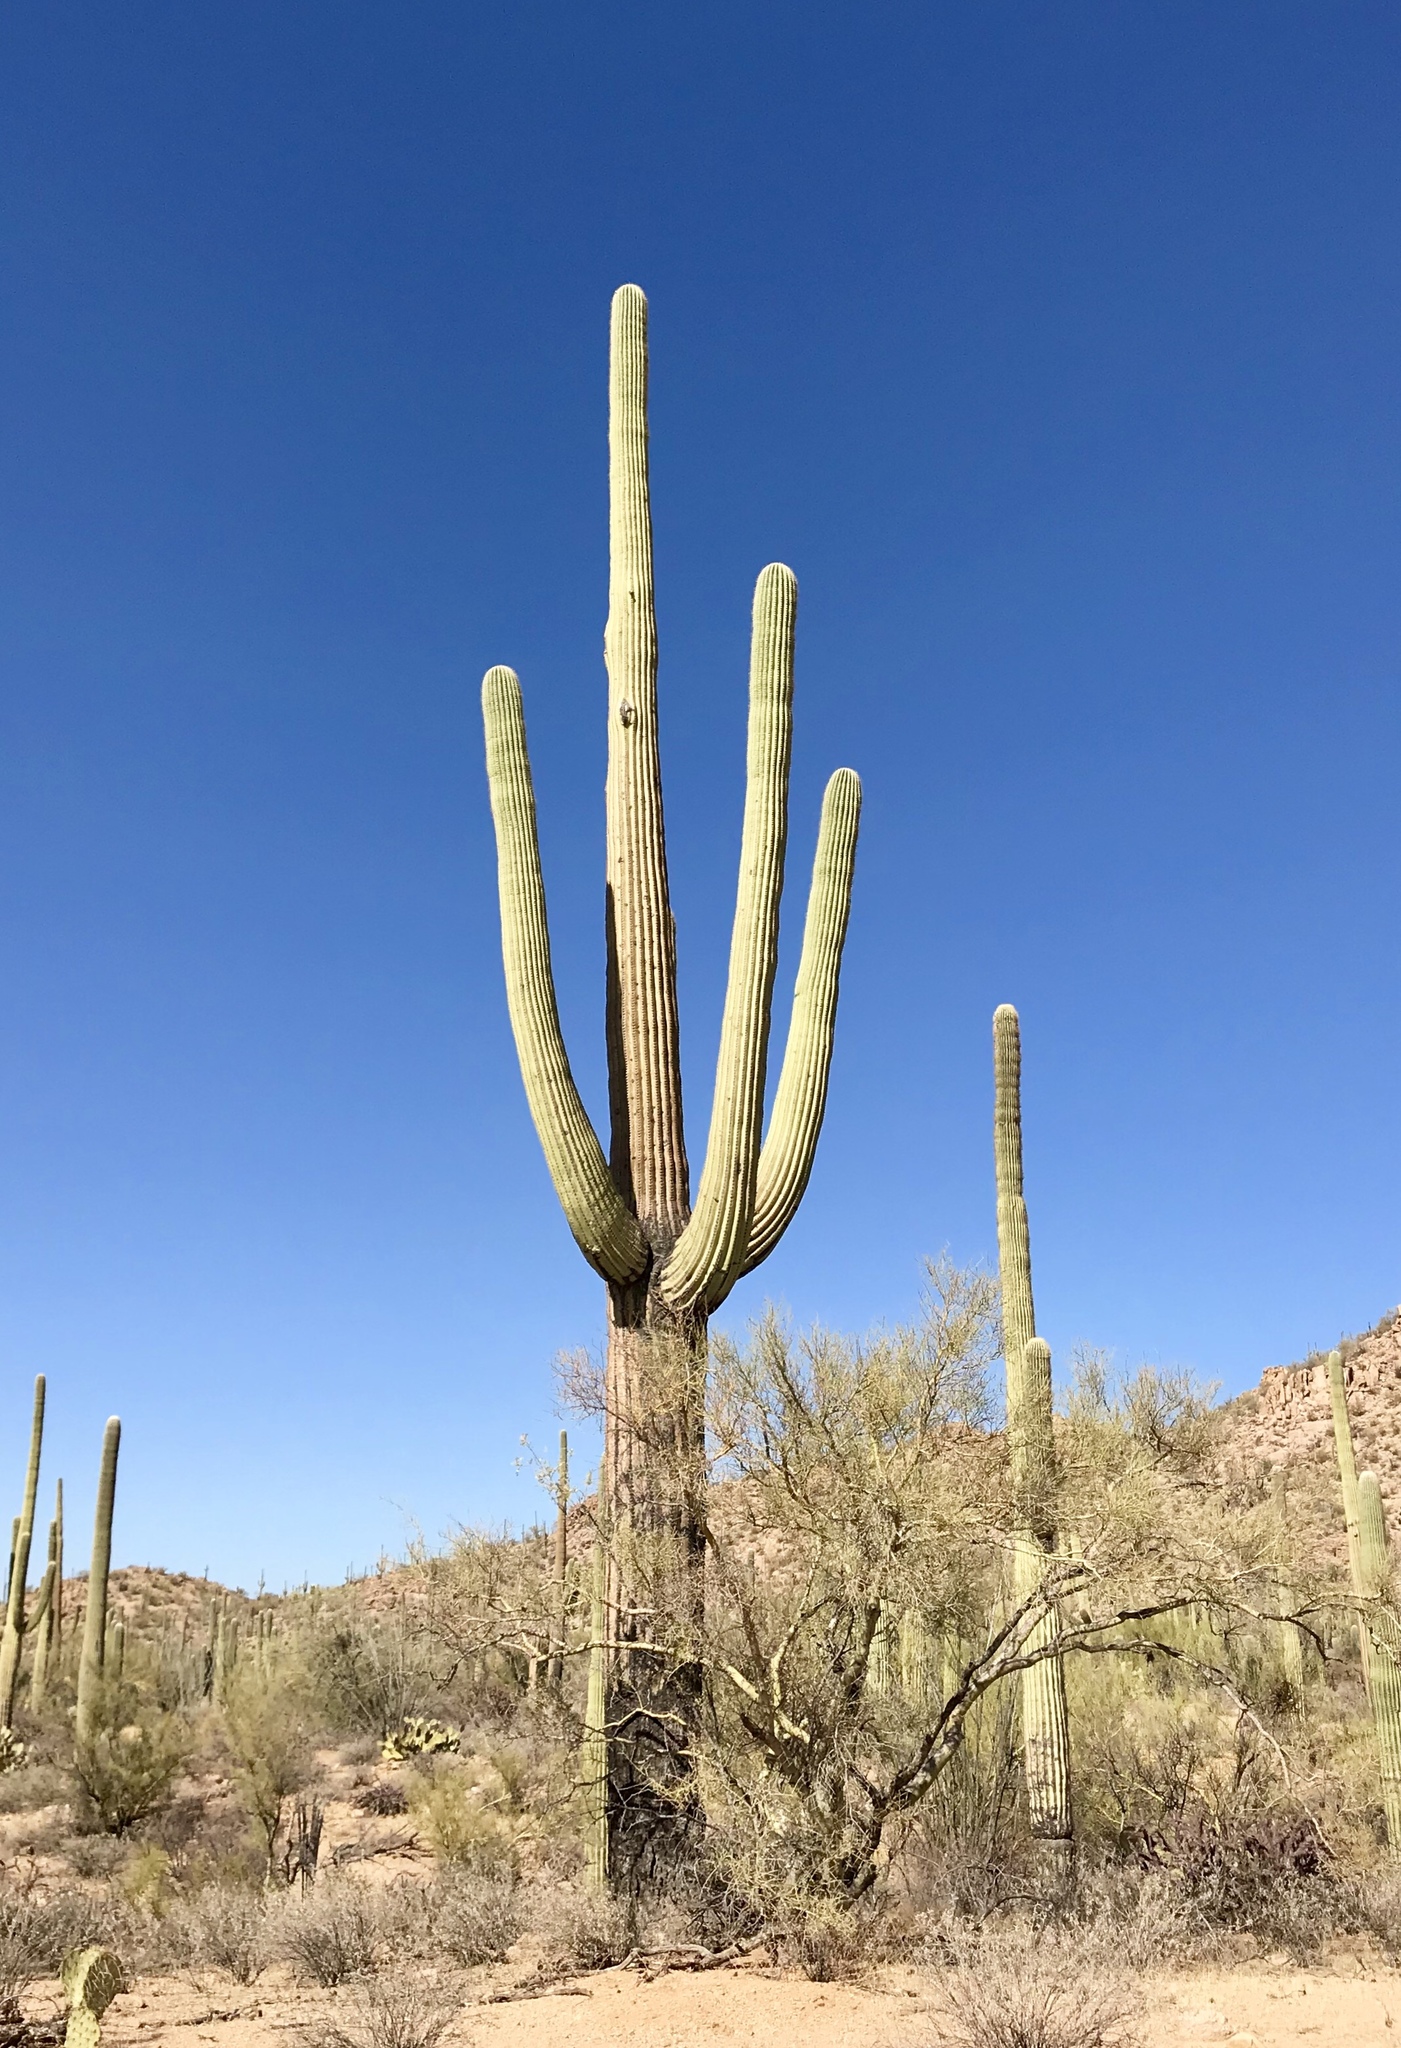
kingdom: Plantae
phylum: Tracheophyta
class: Magnoliopsida
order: Caryophyllales
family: Cactaceae
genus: Carnegiea
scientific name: Carnegiea gigantea
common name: Saguaro
